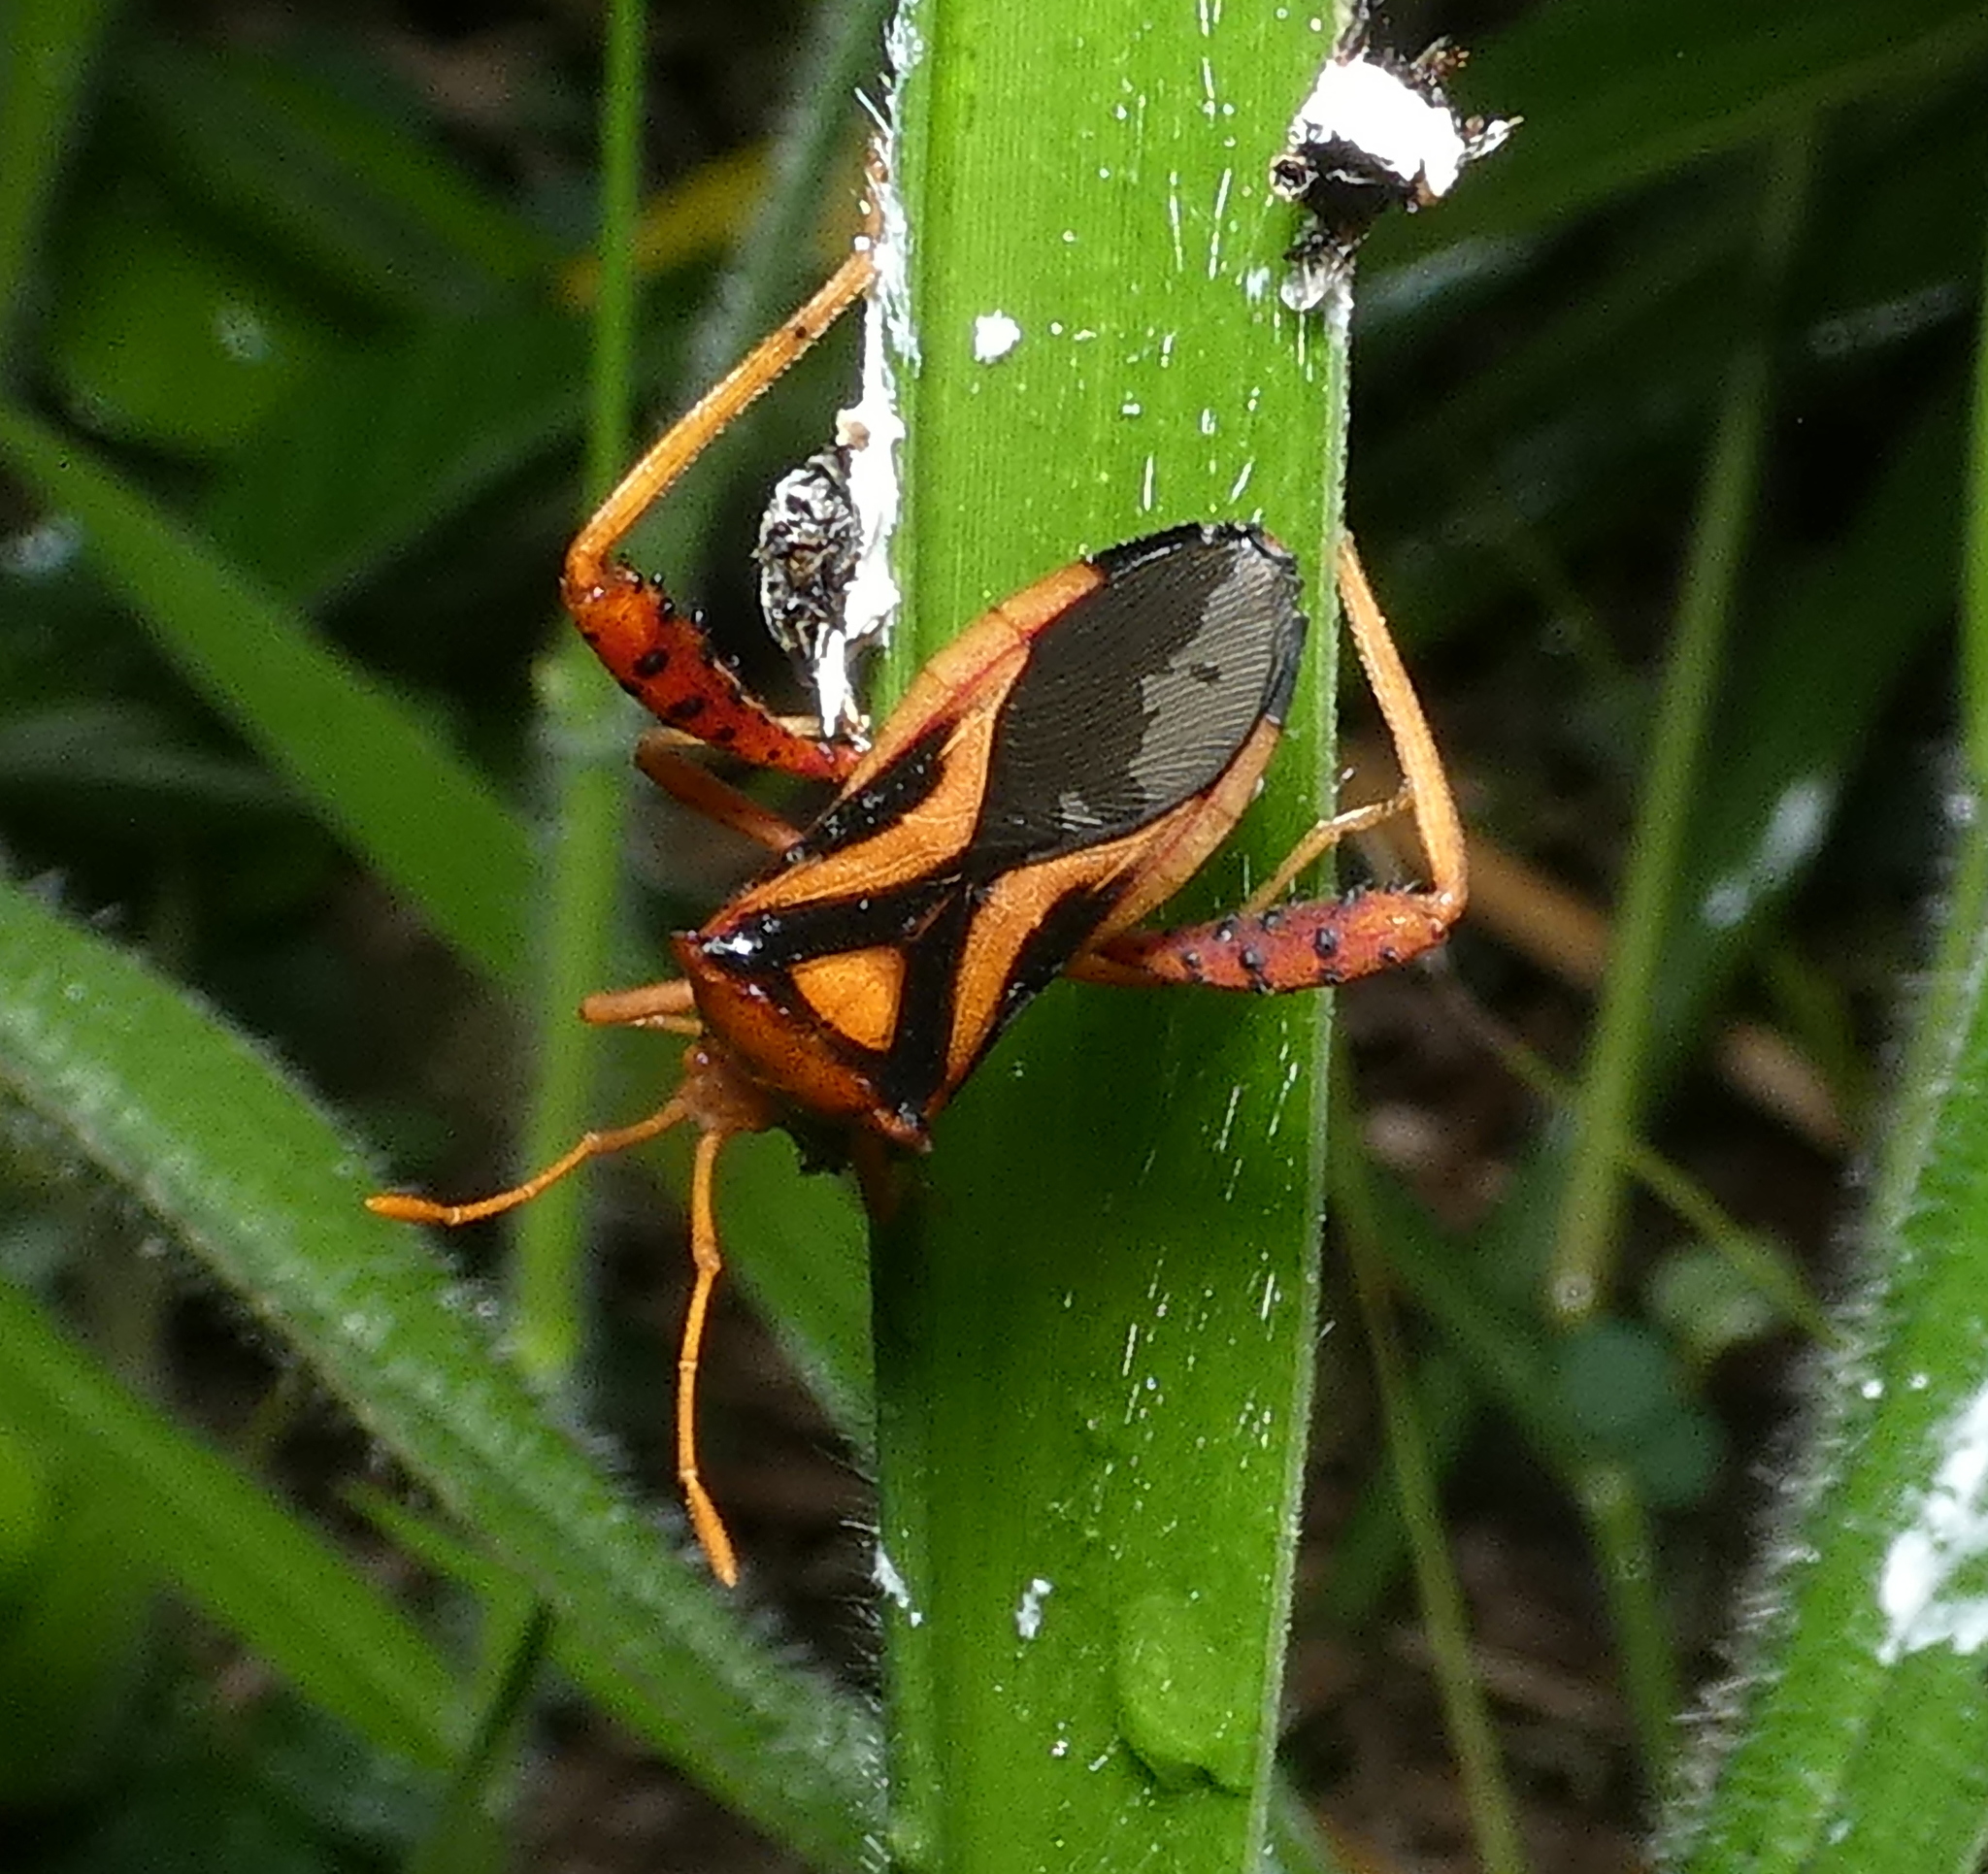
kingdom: Animalia
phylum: Arthropoda
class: Insecta
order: Hemiptera
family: Coreidae
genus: Crinocerus
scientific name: Crinocerus sanctus
